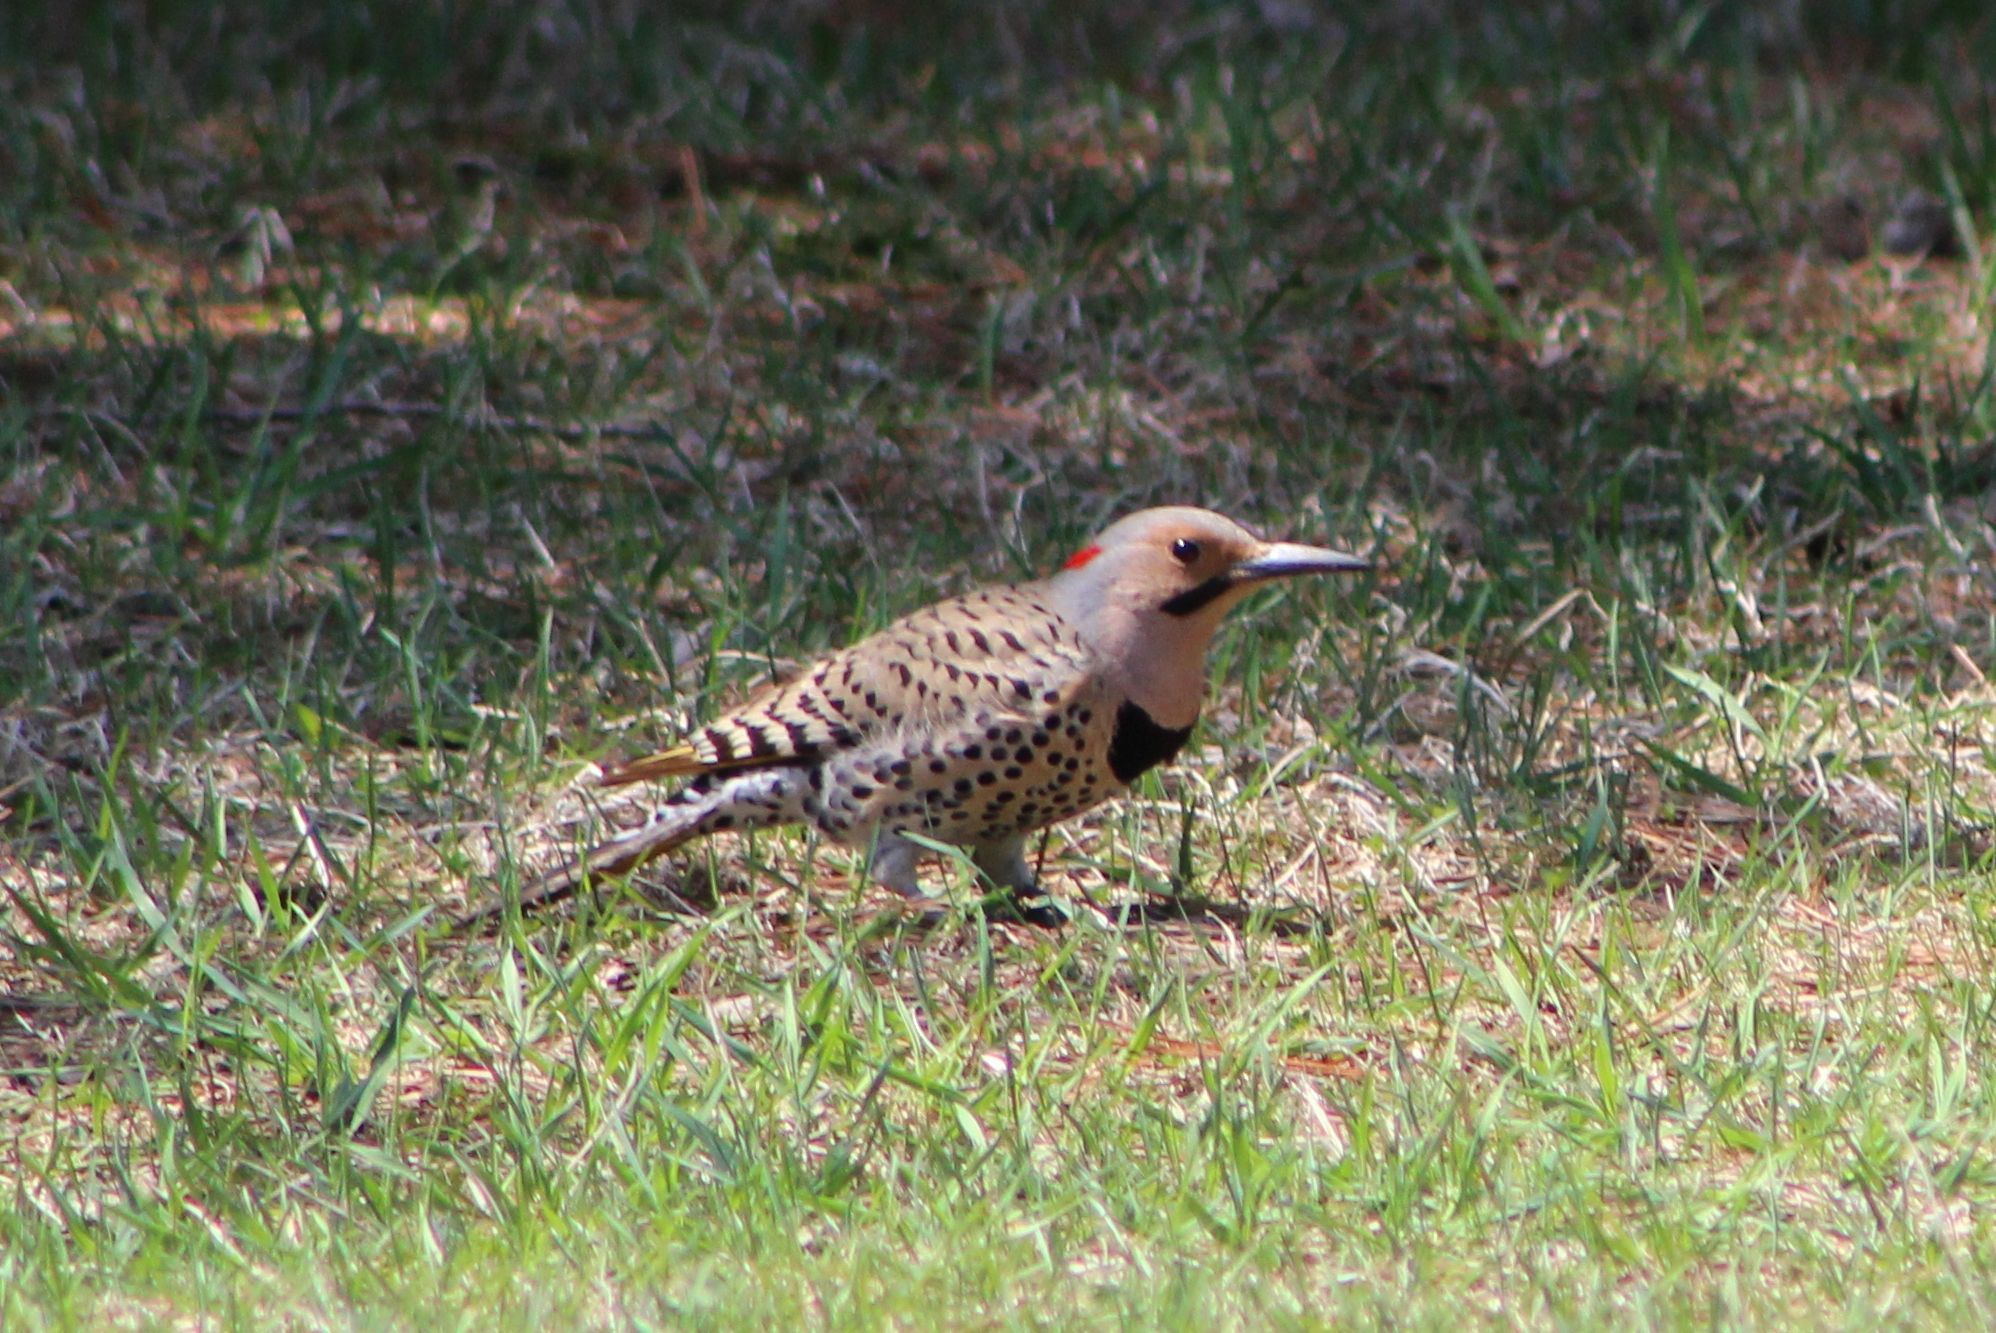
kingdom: Animalia
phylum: Chordata
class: Aves
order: Piciformes
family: Picidae
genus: Colaptes
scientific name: Colaptes auratus
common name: Northern flicker
